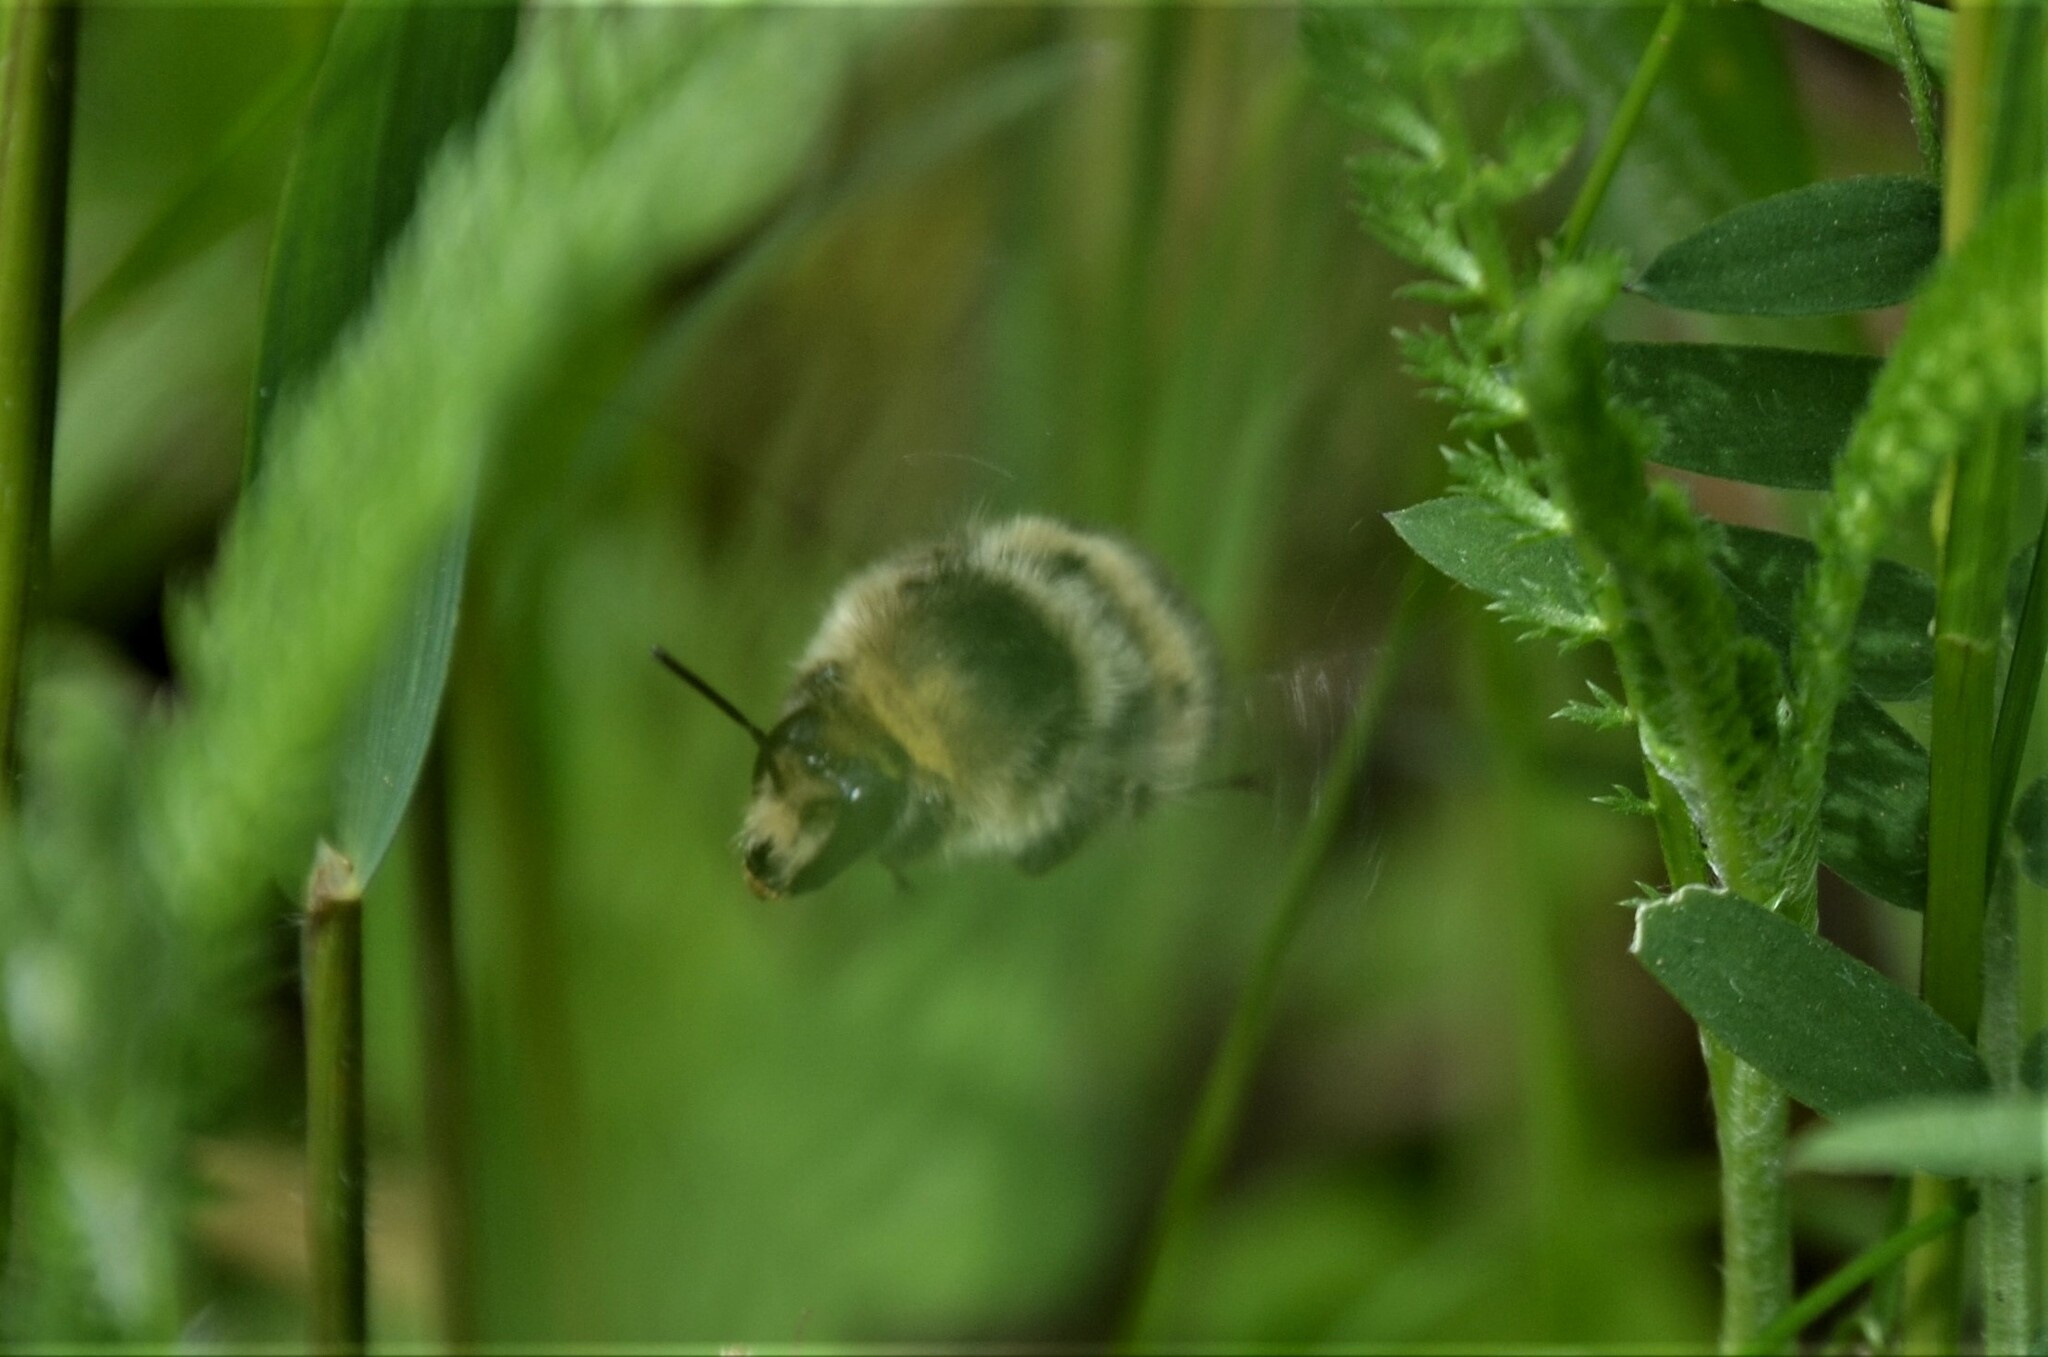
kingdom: Animalia
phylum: Arthropoda
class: Insecta
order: Hymenoptera
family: Apidae
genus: Bombus
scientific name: Bombus sylvarum
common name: Shrill carder bee
